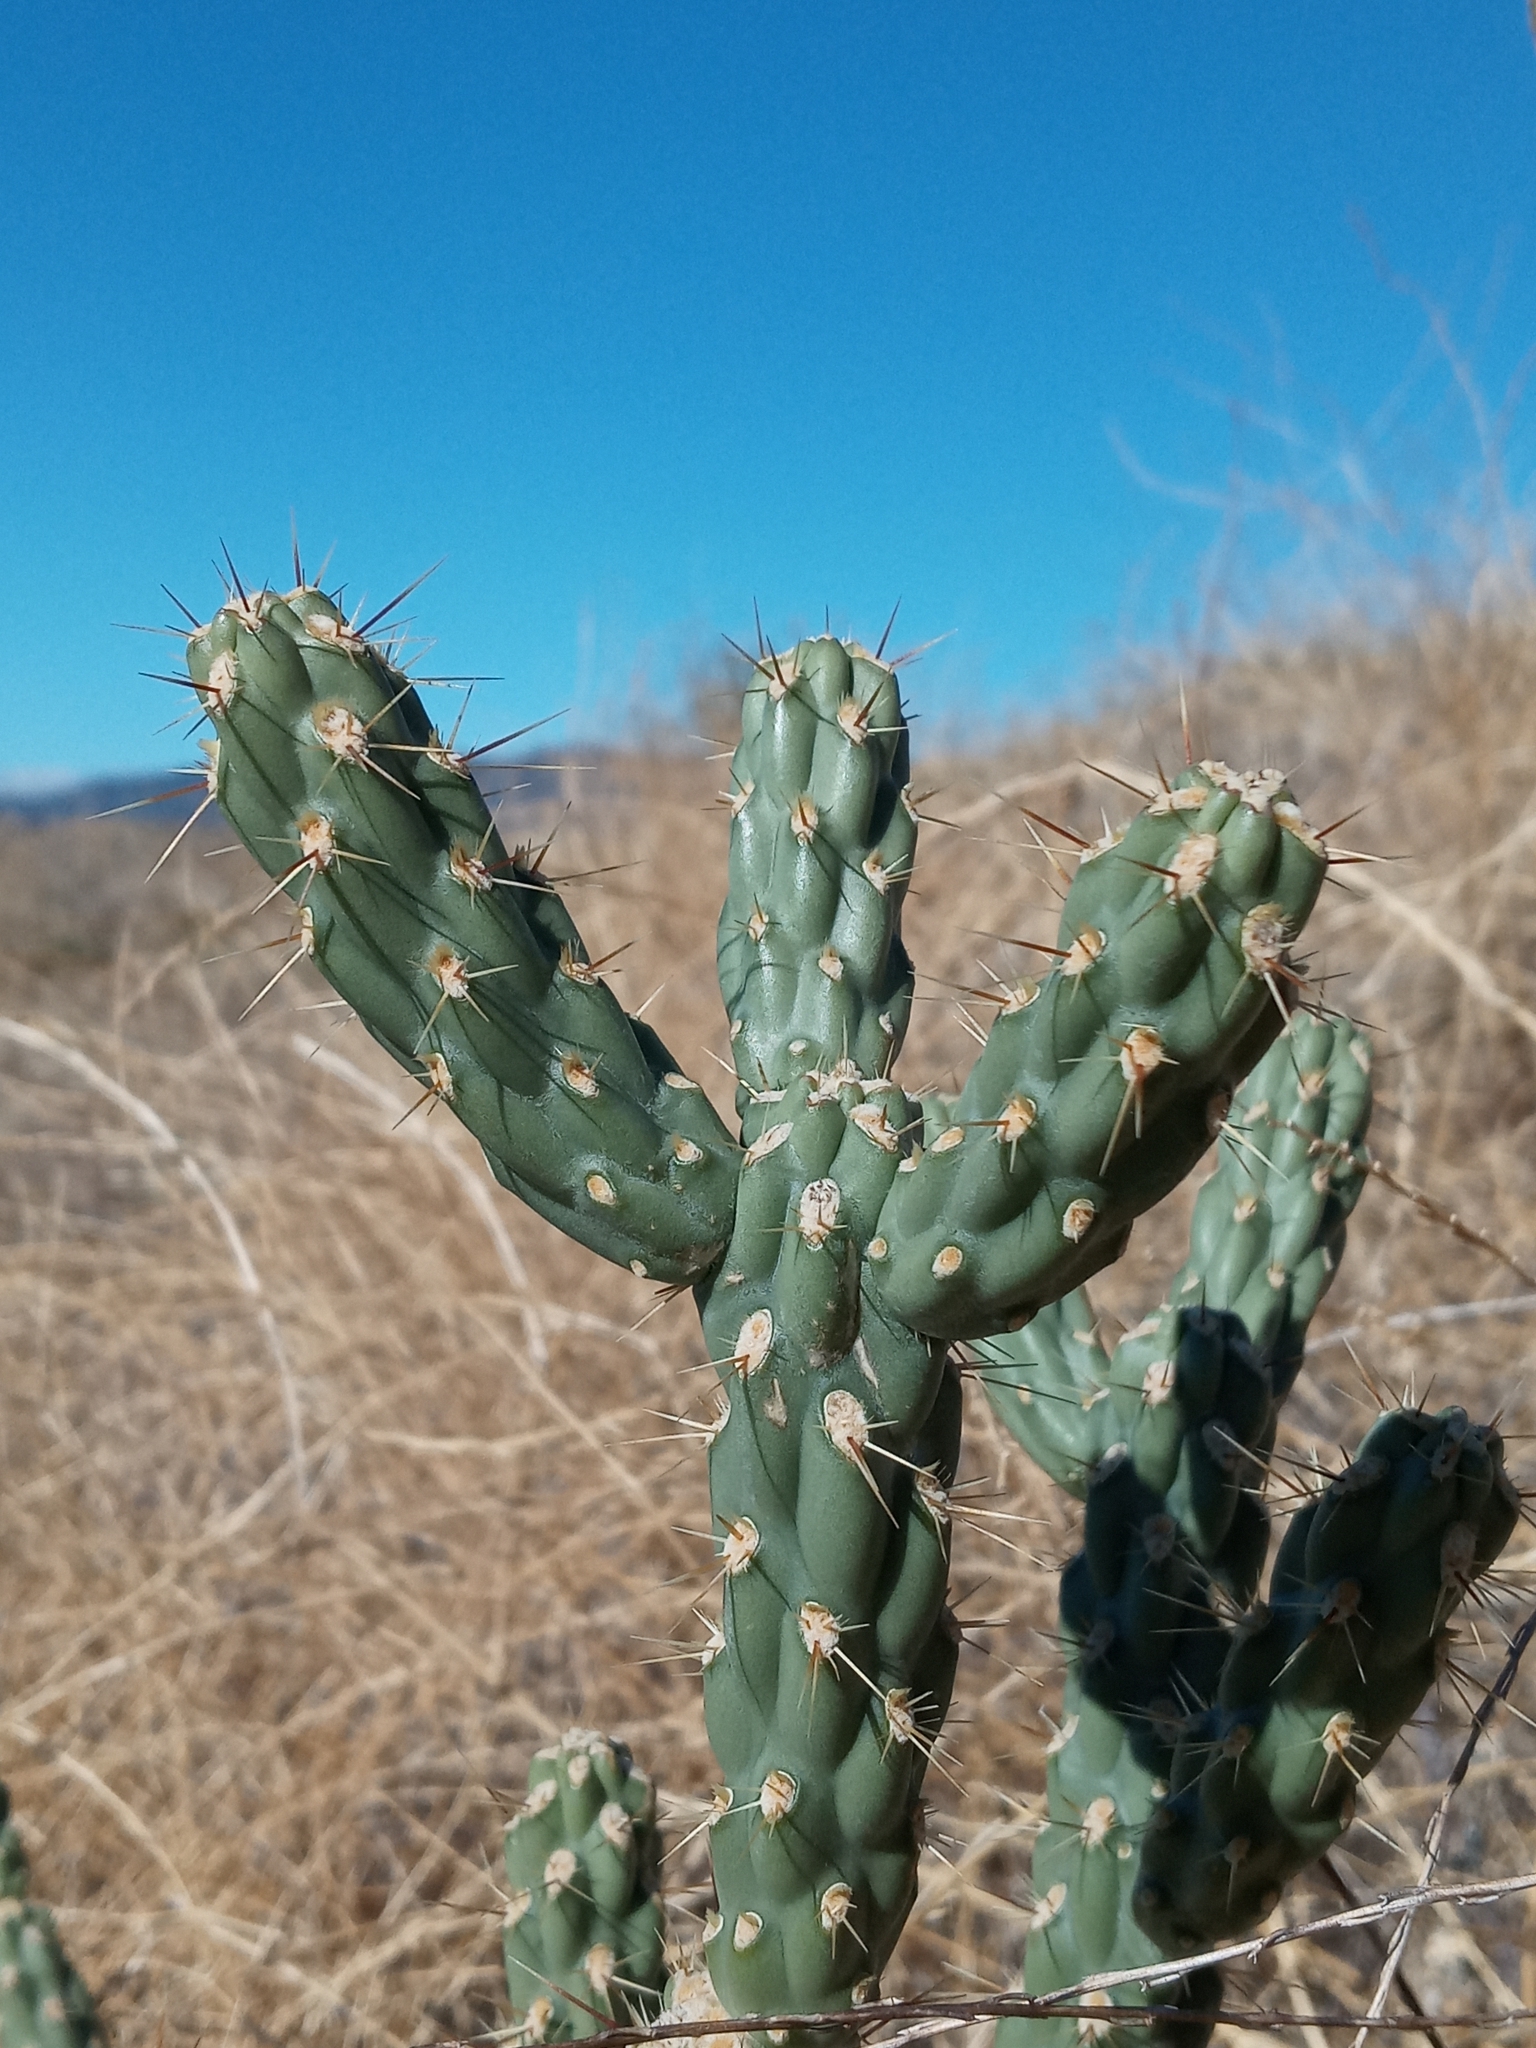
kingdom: Plantae
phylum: Tracheophyta
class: Magnoliopsida
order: Caryophyllales
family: Cactaceae
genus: Cylindropuntia
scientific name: Cylindropuntia bernardina
